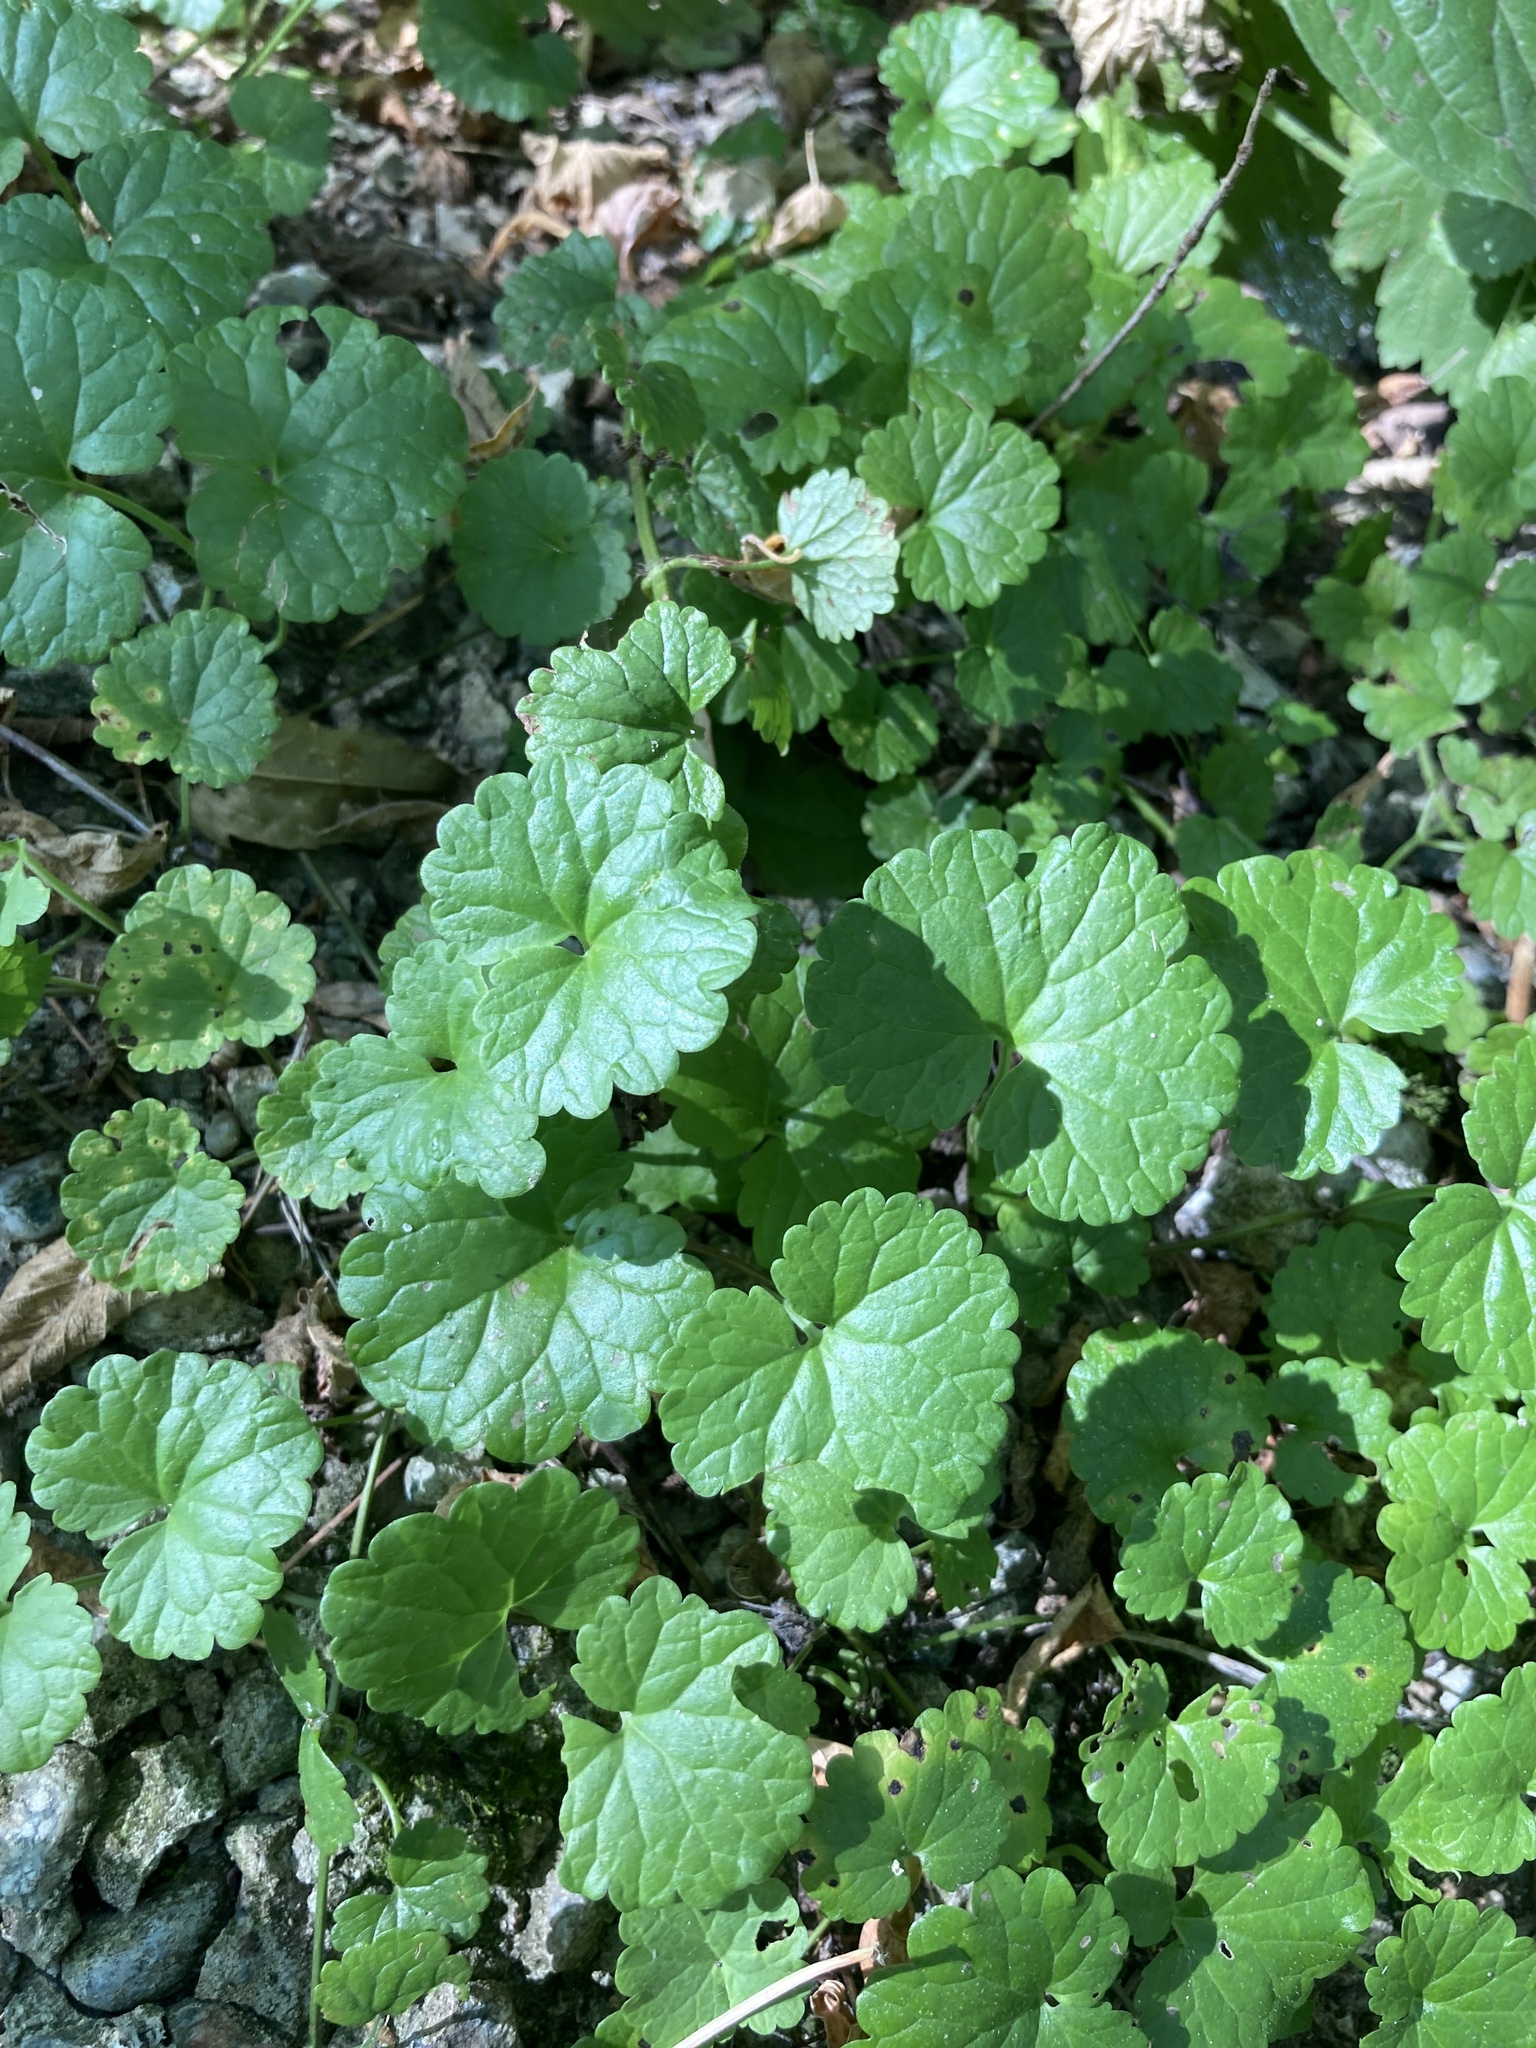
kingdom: Plantae
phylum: Tracheophyta
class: Magnoliopsida
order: Lamiales
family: Lamiaceae
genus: Glechoma
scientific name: Glechoma hederacea
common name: Ground ivy
